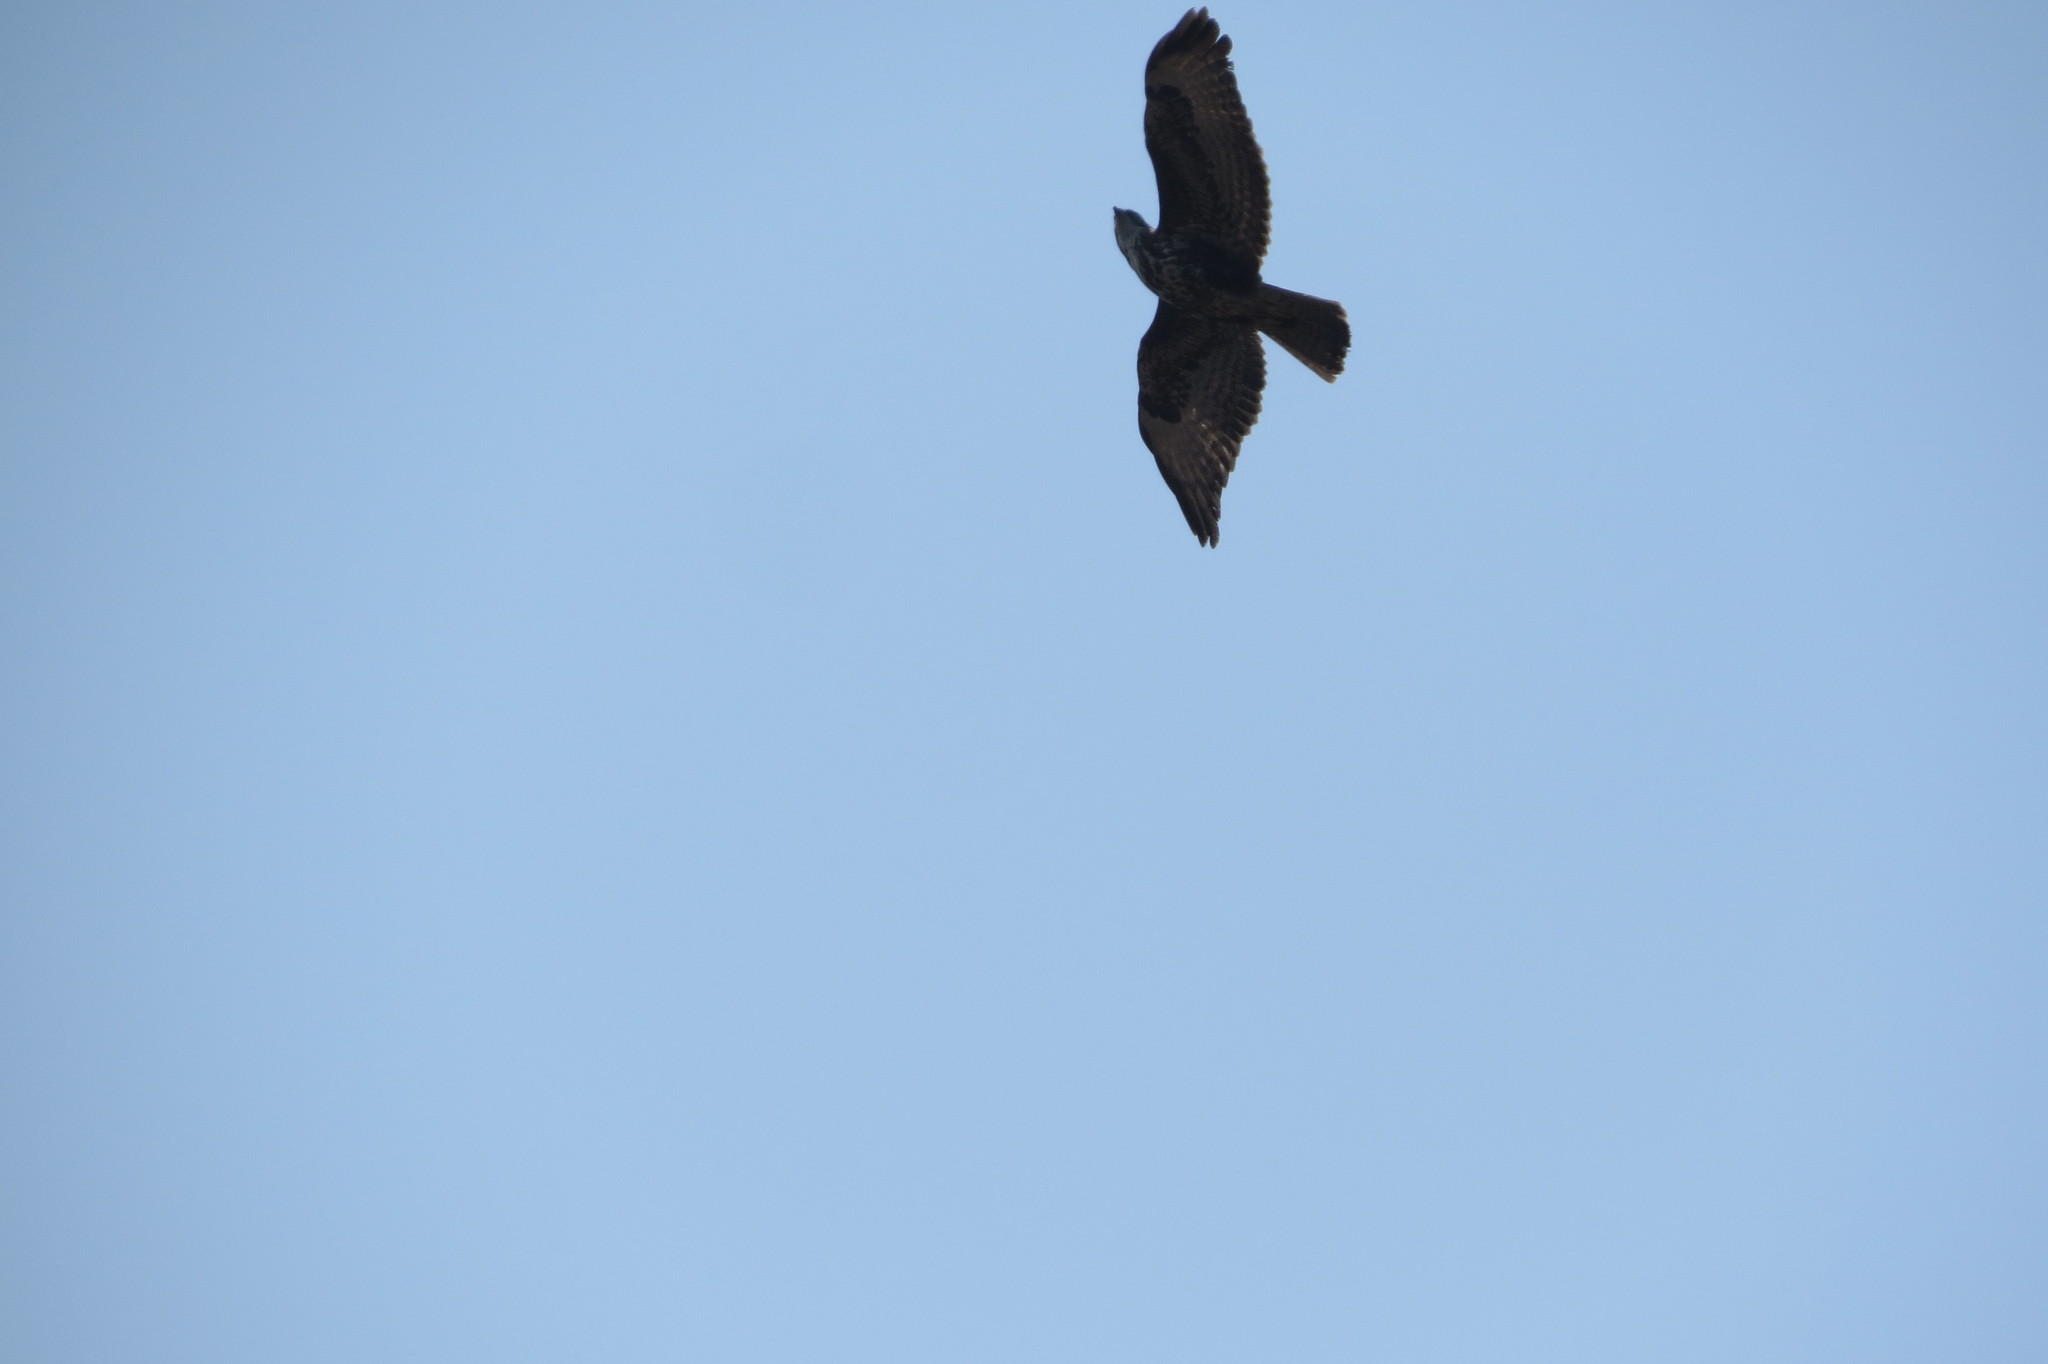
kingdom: Animalia
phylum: Chordata
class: Aves
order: Accipitriformes
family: Accipitridae
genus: Buteo
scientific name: Buteo buteo
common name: Common buzzard
